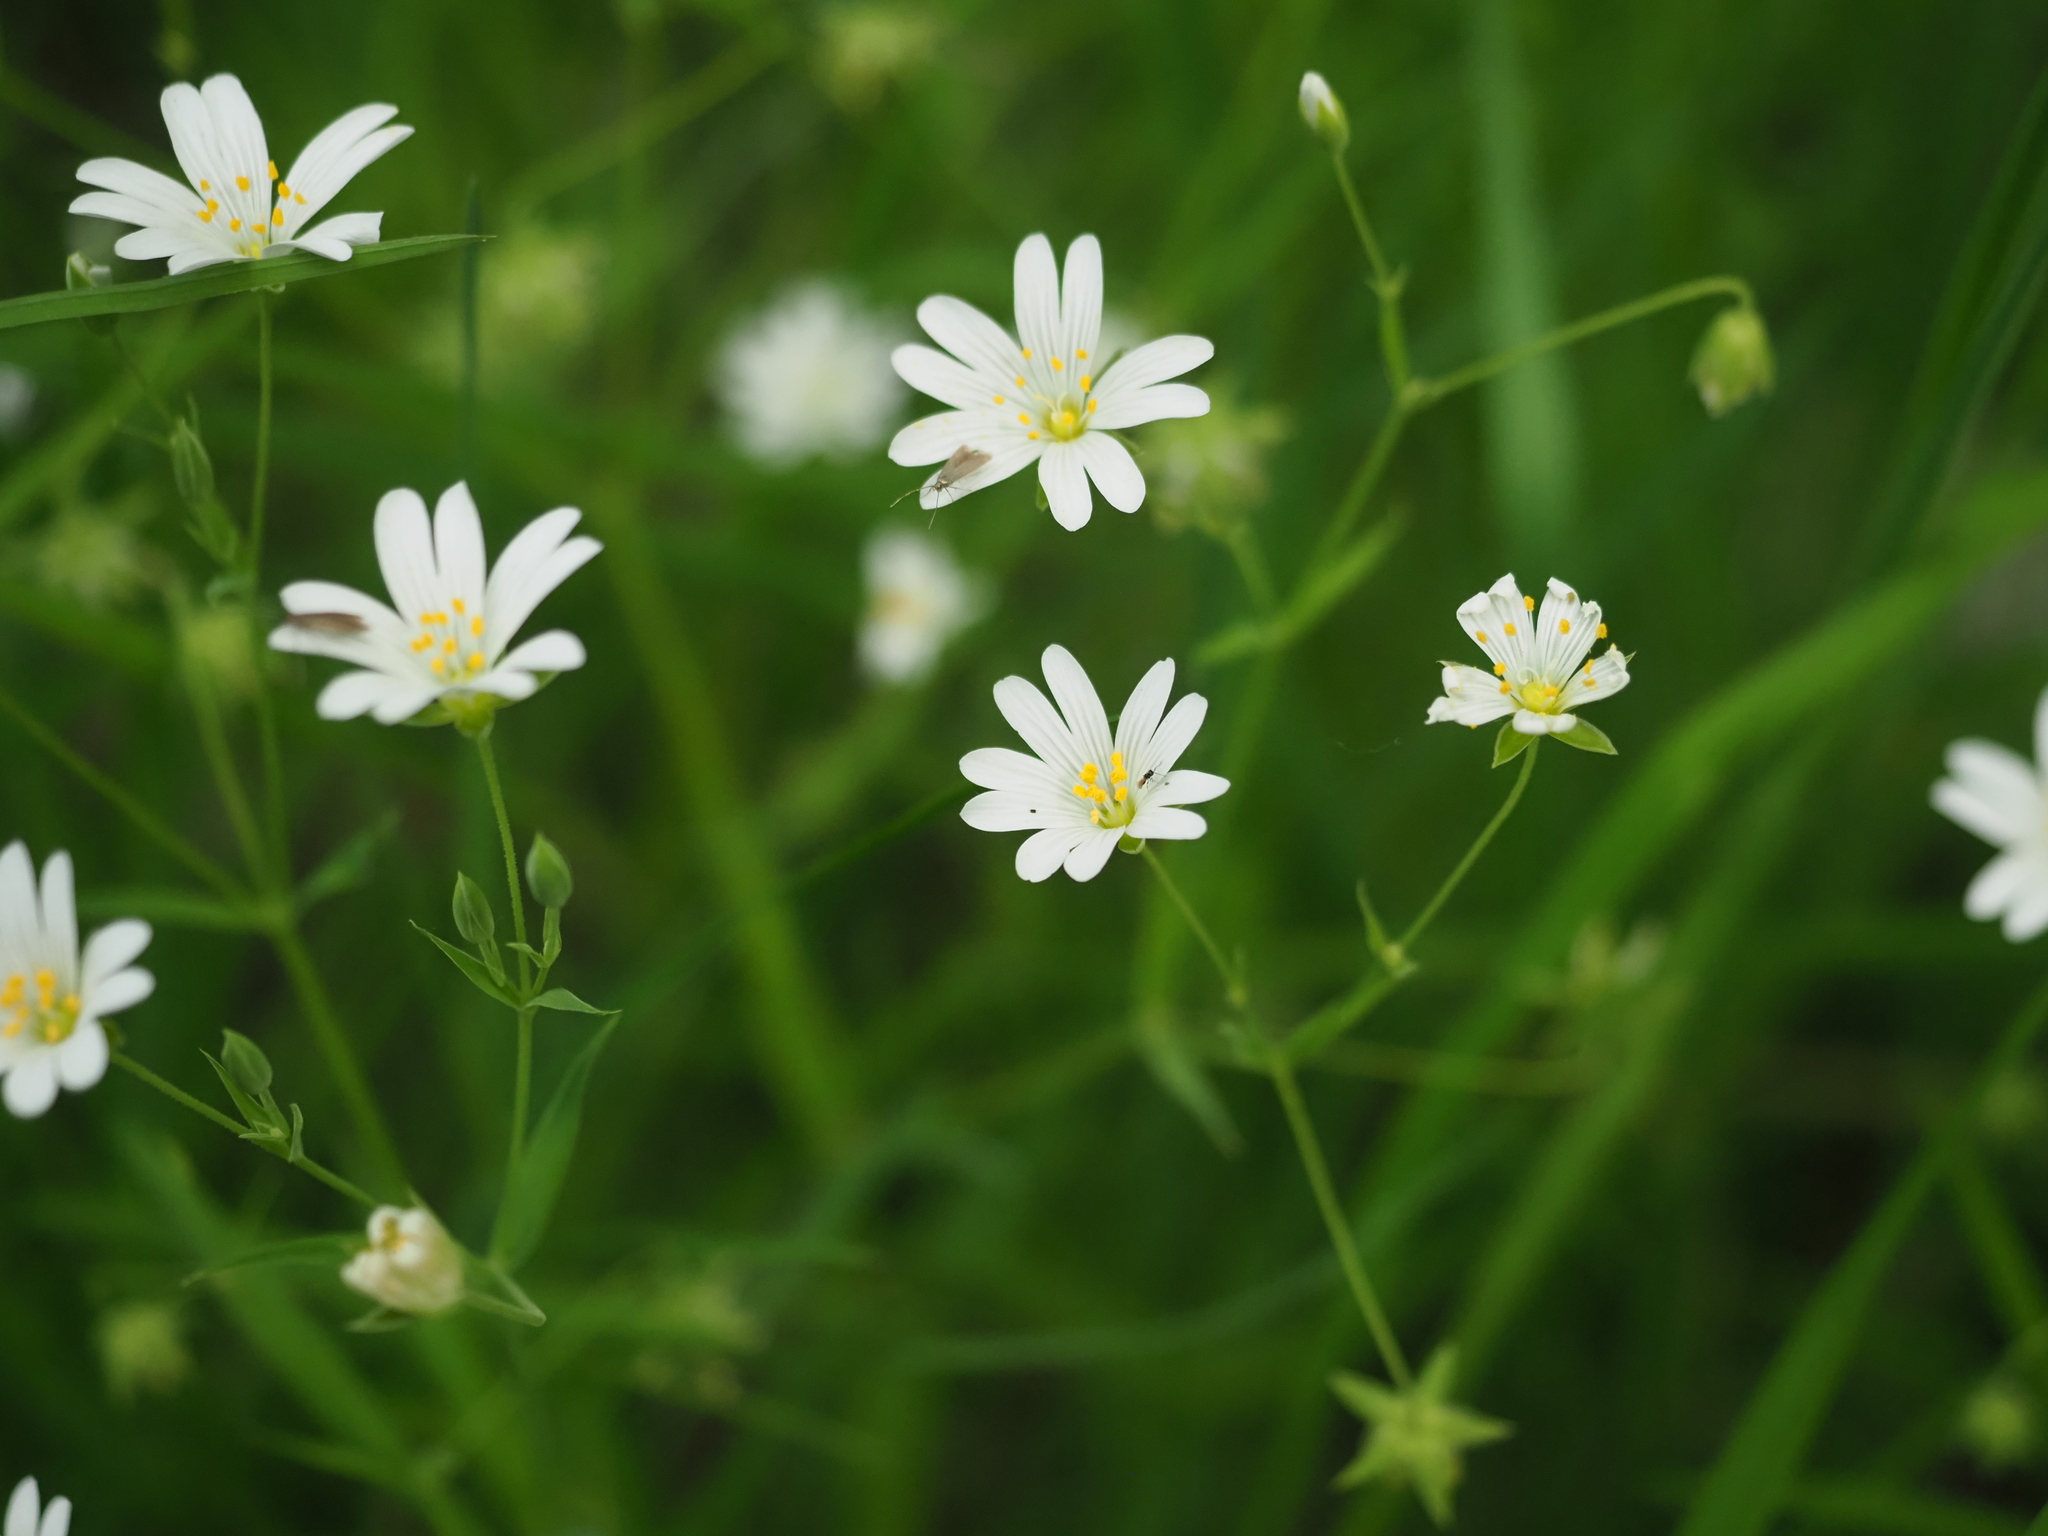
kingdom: Plantae
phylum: Tracheophyta
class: Magnoliopsida
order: Caryophyllales
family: Caryophyllaceae
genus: Rabelera
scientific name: Rabelera holostea
